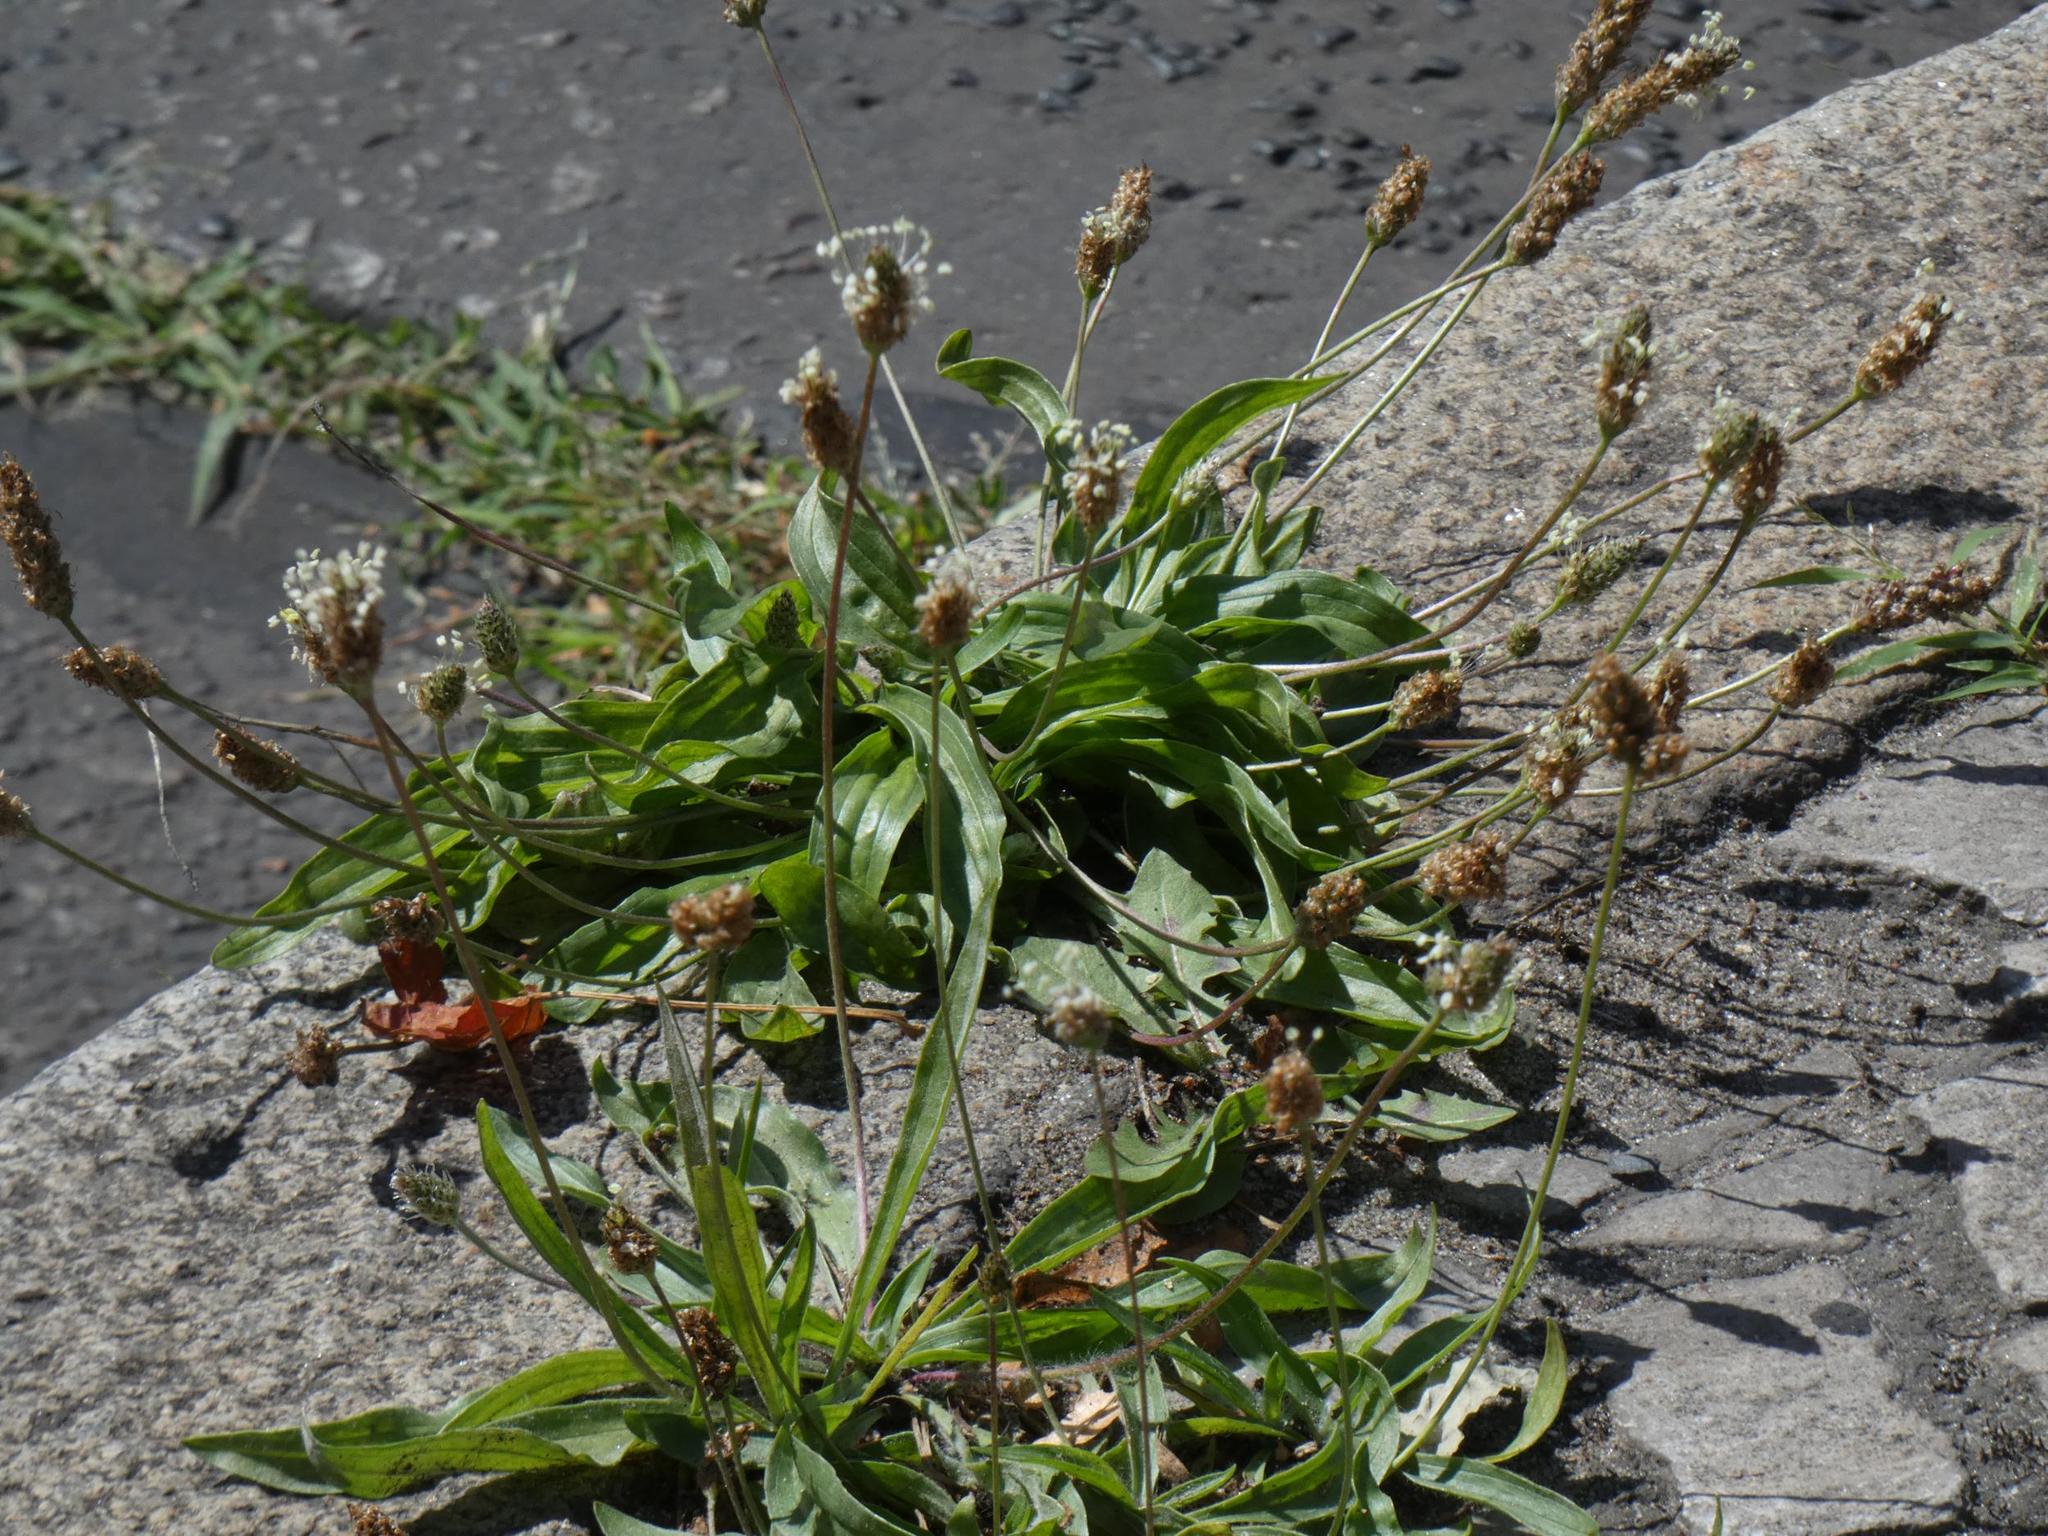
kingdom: Plantae
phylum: Tracheophyta
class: Magnoliopsida
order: Lamiales
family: Plantaginaceae
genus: Plantago
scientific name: Plantago lanceolata
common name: Ribwort plantain
